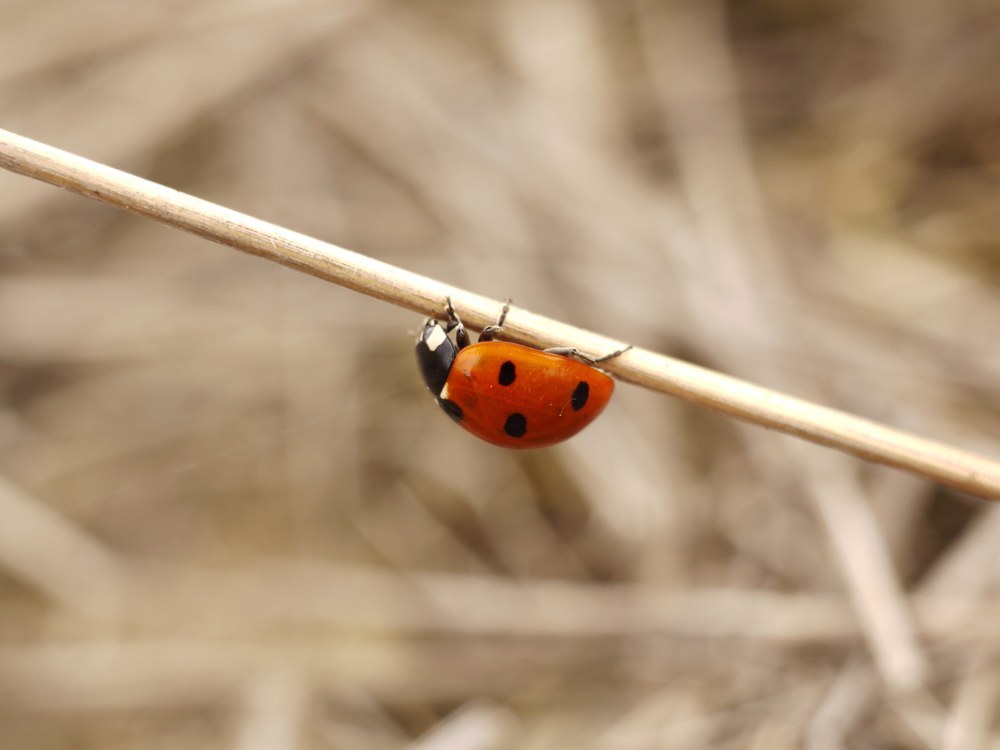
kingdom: Animalia
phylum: Arthropoda
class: Insecta
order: Coleoptera
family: Coccinellidae
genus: Coccinella
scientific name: Coccinella septempunctata
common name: Sevenspotted lady beetle
